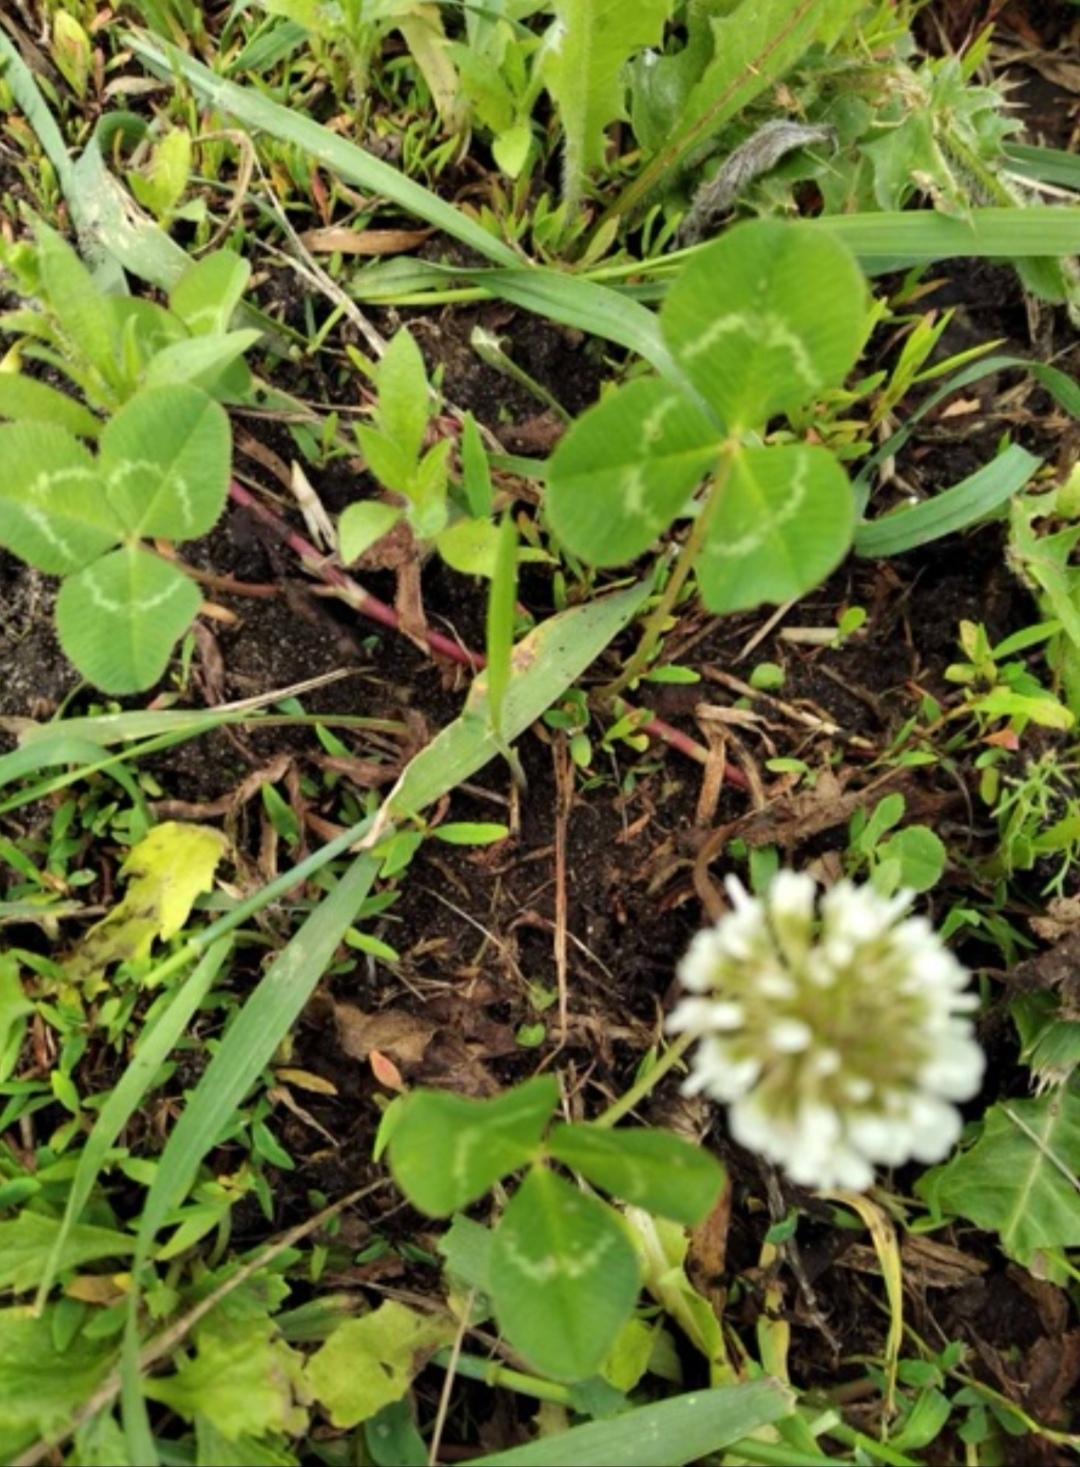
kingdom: Plantae
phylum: Tracheophyta
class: Magnoliopsida
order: Fabales
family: Fabaceae
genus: Trifolium
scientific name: Trifolium repens
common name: White clover
